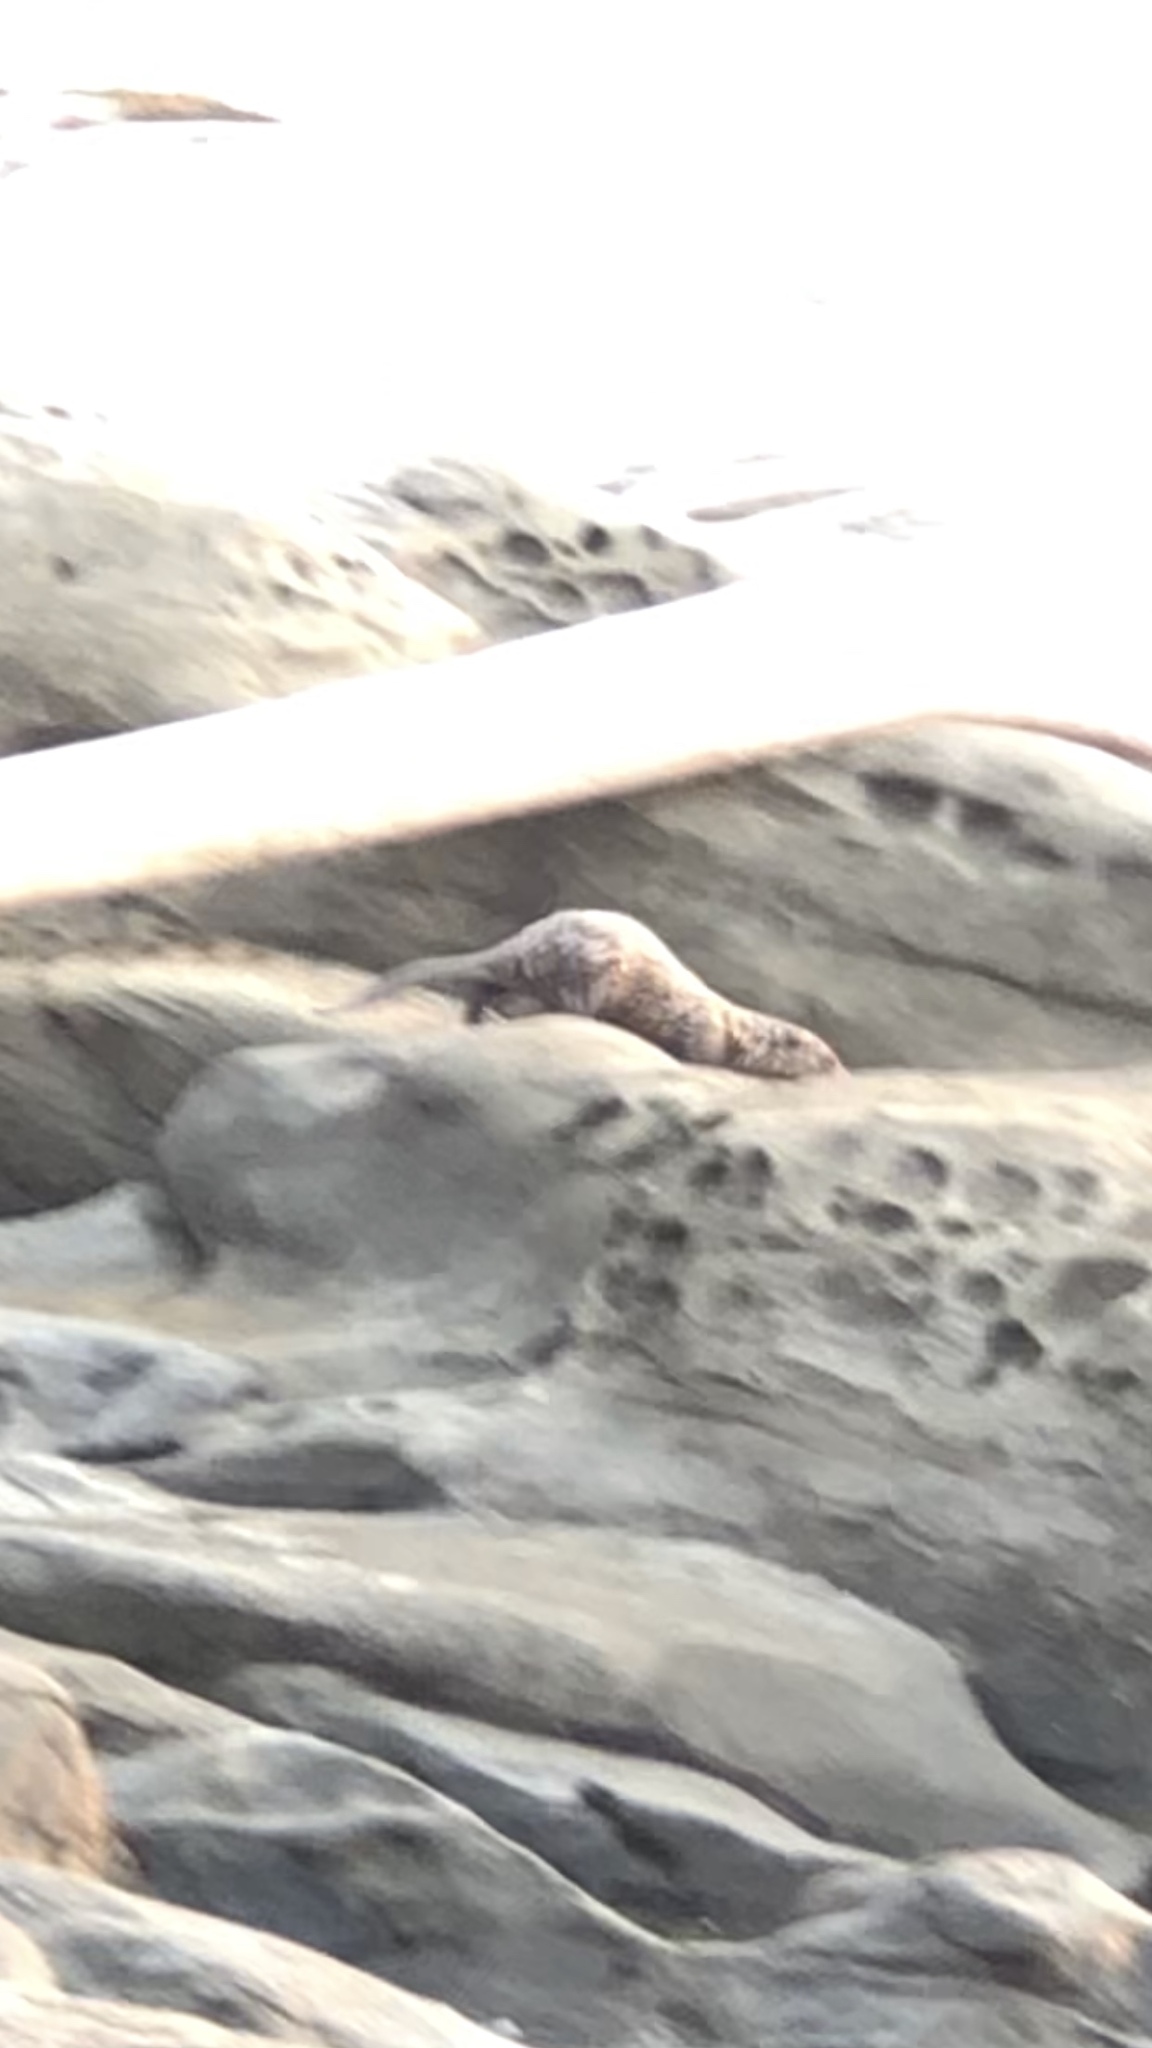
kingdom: Animalia
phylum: Chordata
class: Mammalia
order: Carnivora
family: Mustelidae
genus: Lontra
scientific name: Lontra canadensis
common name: North american river otter
